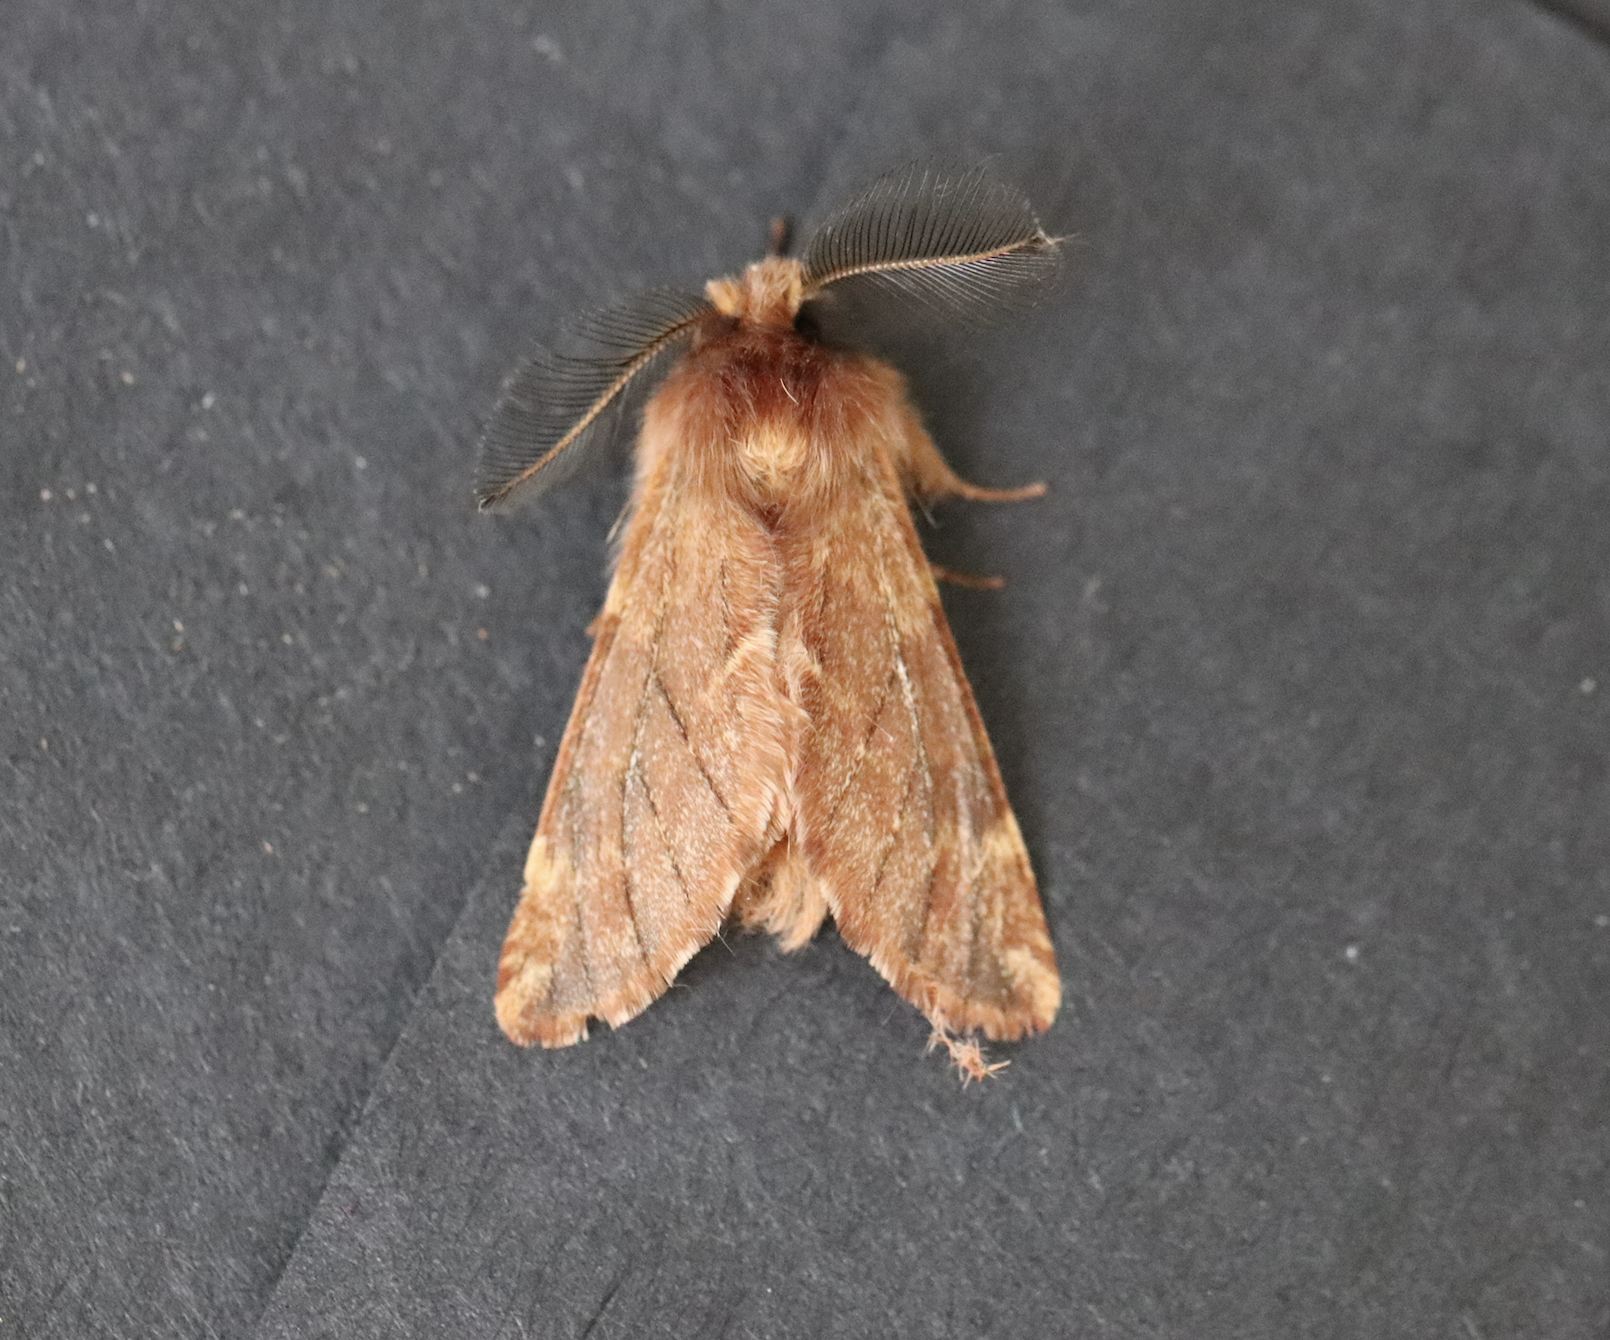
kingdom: Animalia
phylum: Arthropoda
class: Insecta
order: Lepidoptera
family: Notodontidae
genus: Ptilophora
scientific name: Ptilophora plumigera
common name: Plumed prominent
